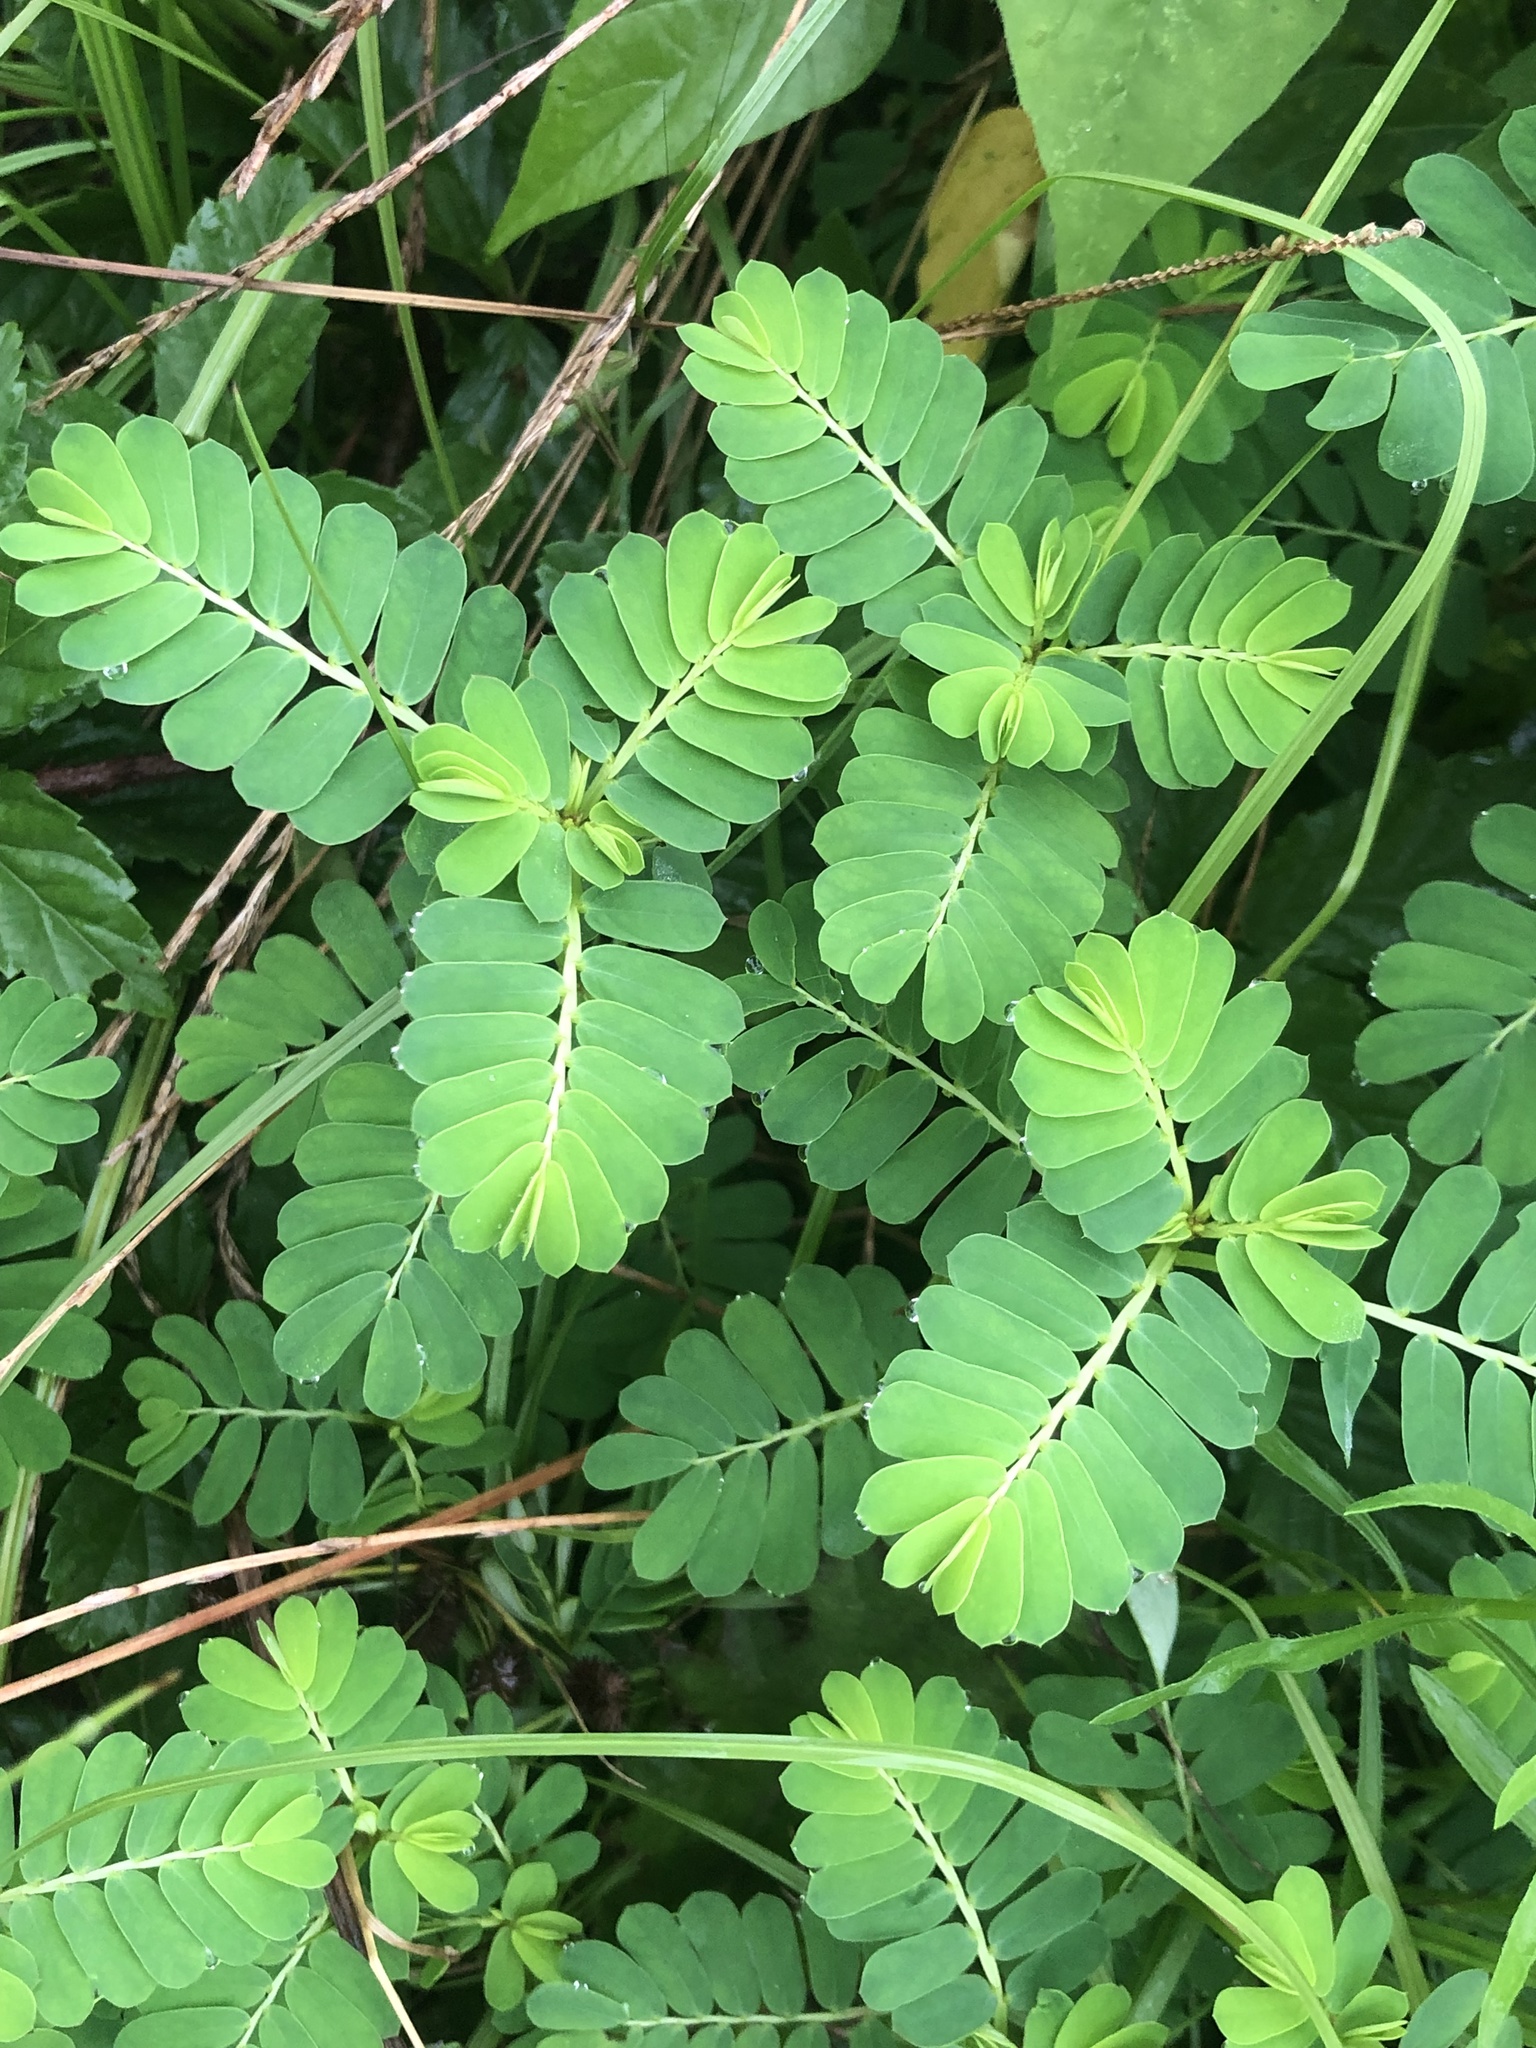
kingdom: Plantae
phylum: Tracheophyta
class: Magnoliopsida
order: Malpighiales
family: Phyllanthaceae
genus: Phyllanthus
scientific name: Phyllanthus urinaria
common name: Chamber bitter
